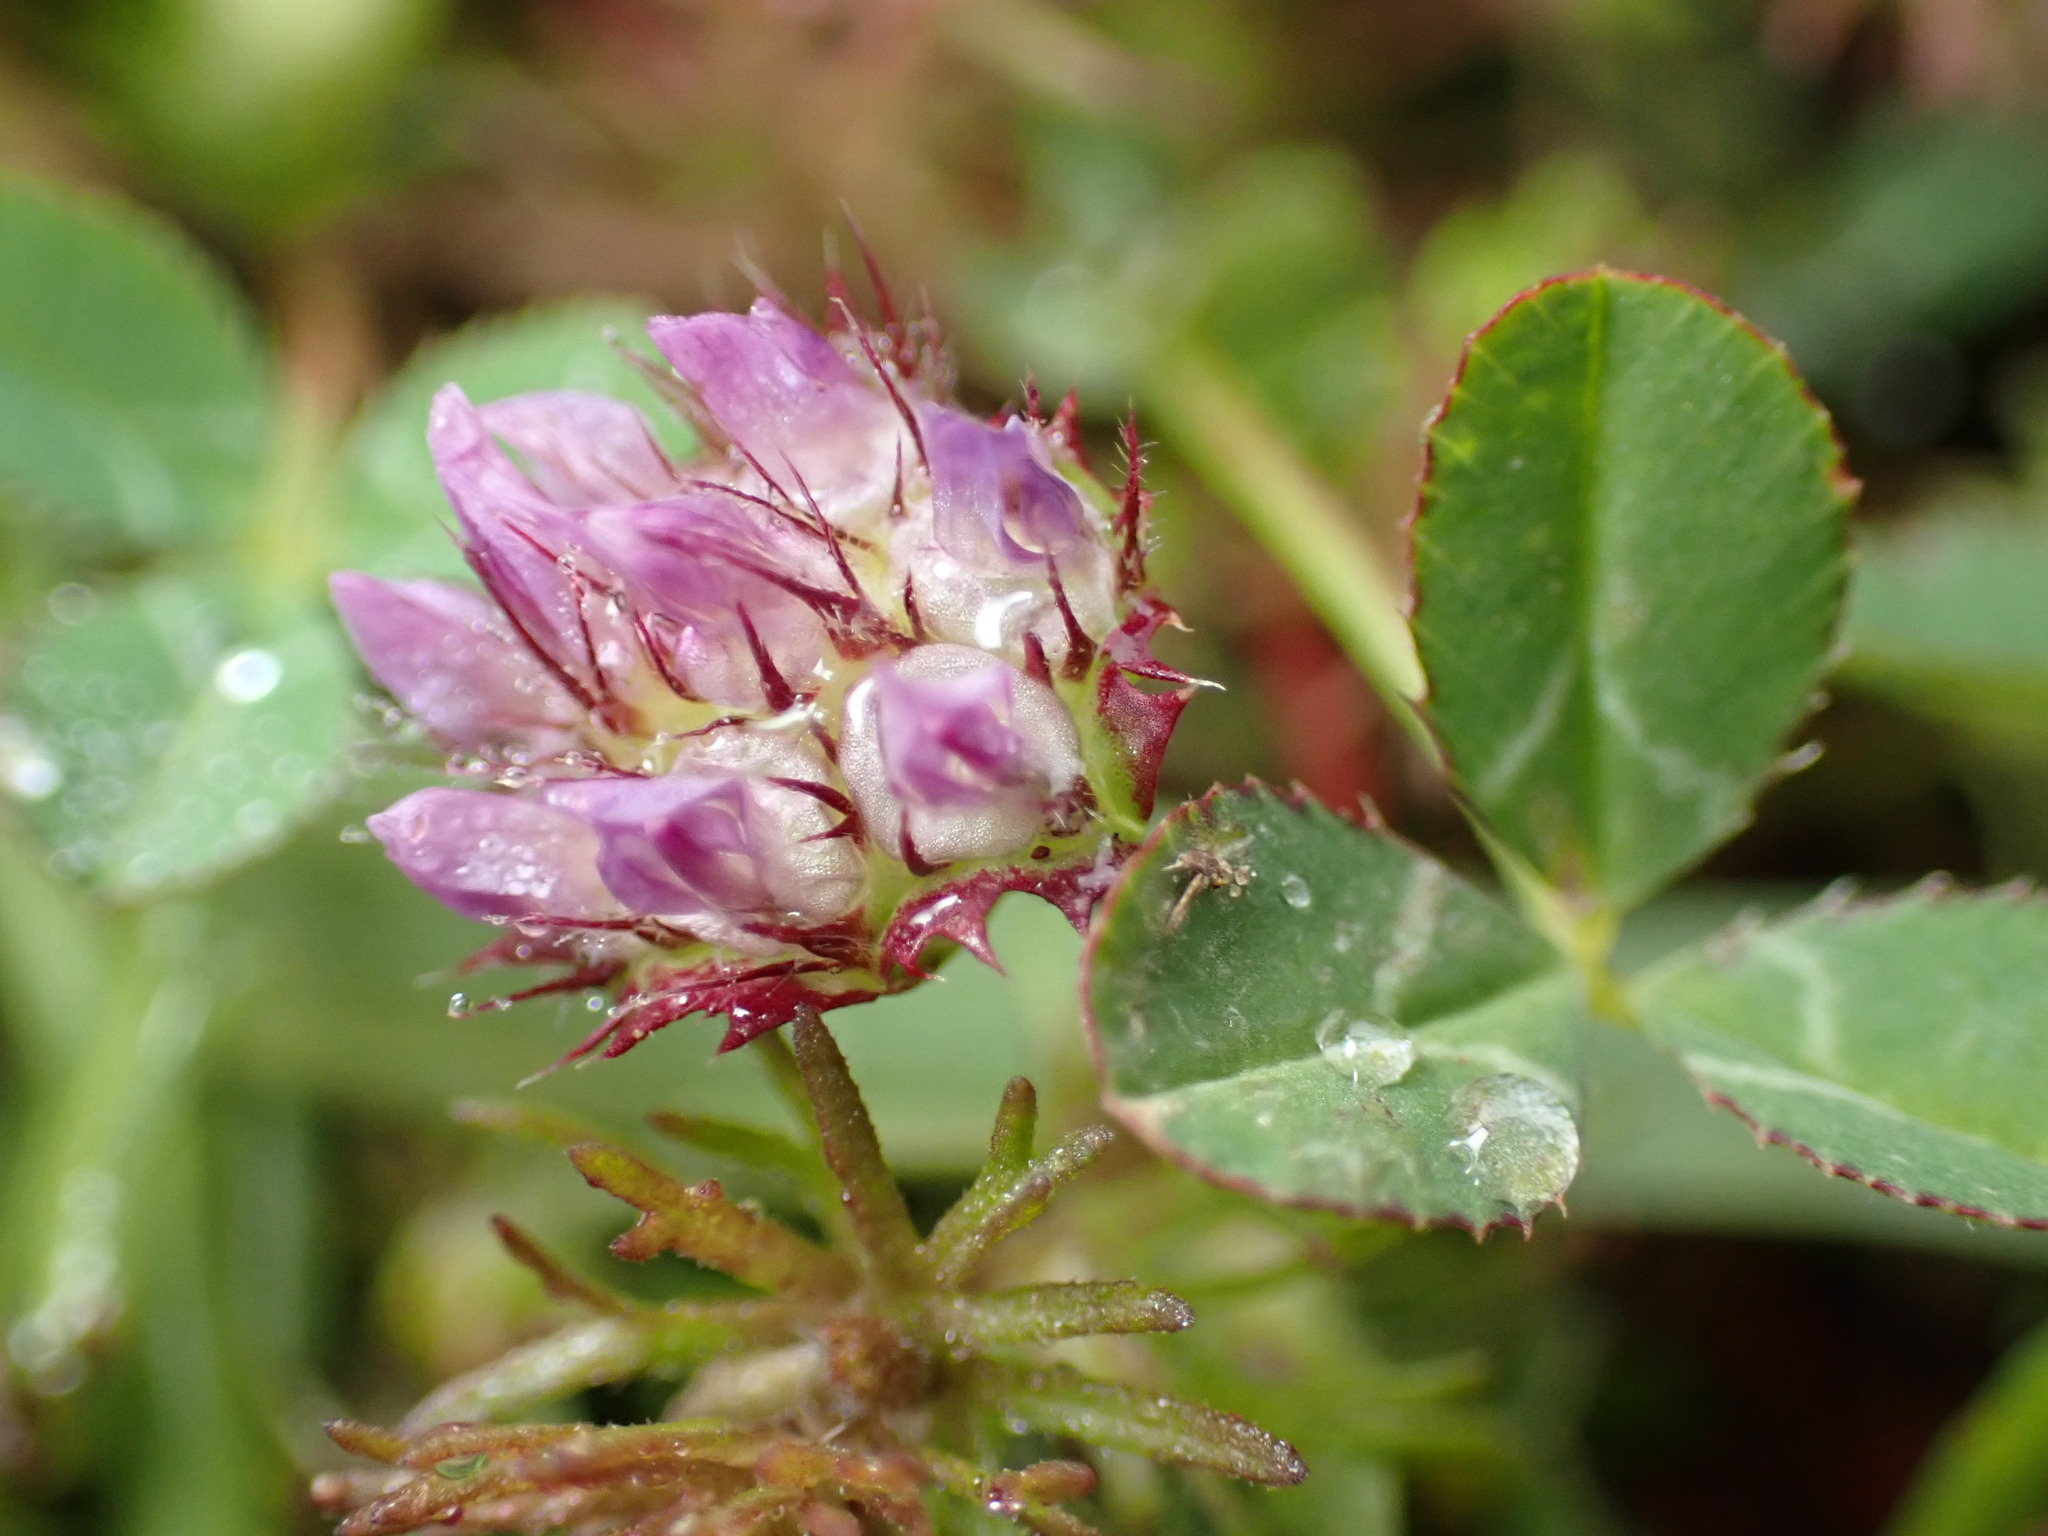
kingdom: Plantae
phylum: Tracheophyta
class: Magnoliopsida
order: Fabales
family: Fabaceae
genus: Trifolium
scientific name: Trifolium barbigerum
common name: Bearded clover
